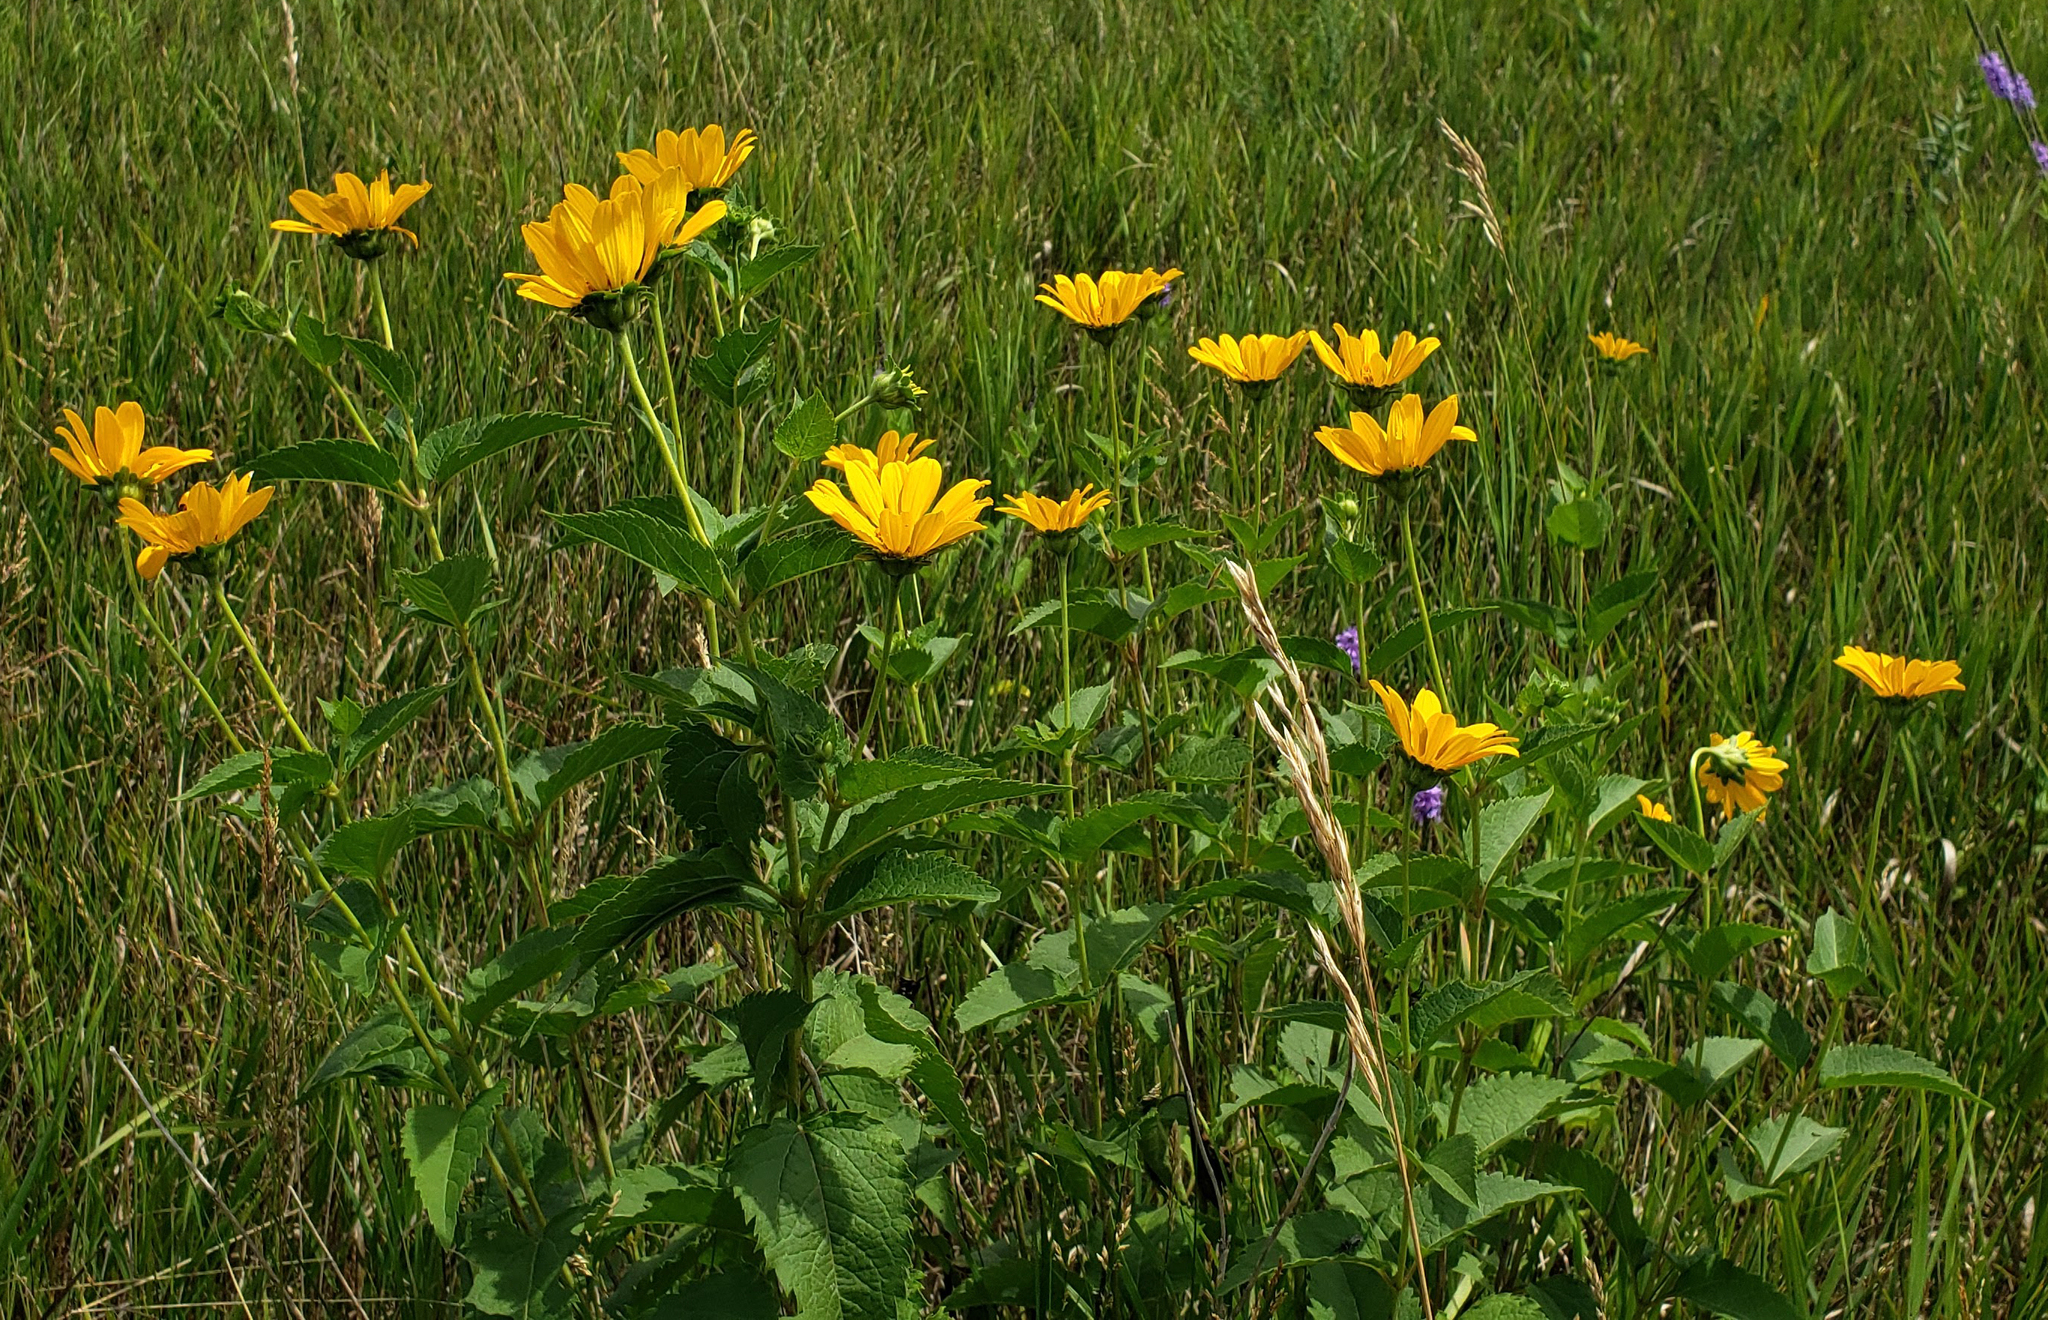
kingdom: Plantae
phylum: Tracheophyta
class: Magnoliopsida
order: Asterales
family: Asteraceae
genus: Heliopsis
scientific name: Heliopsis helianthoides
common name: False sunflower
